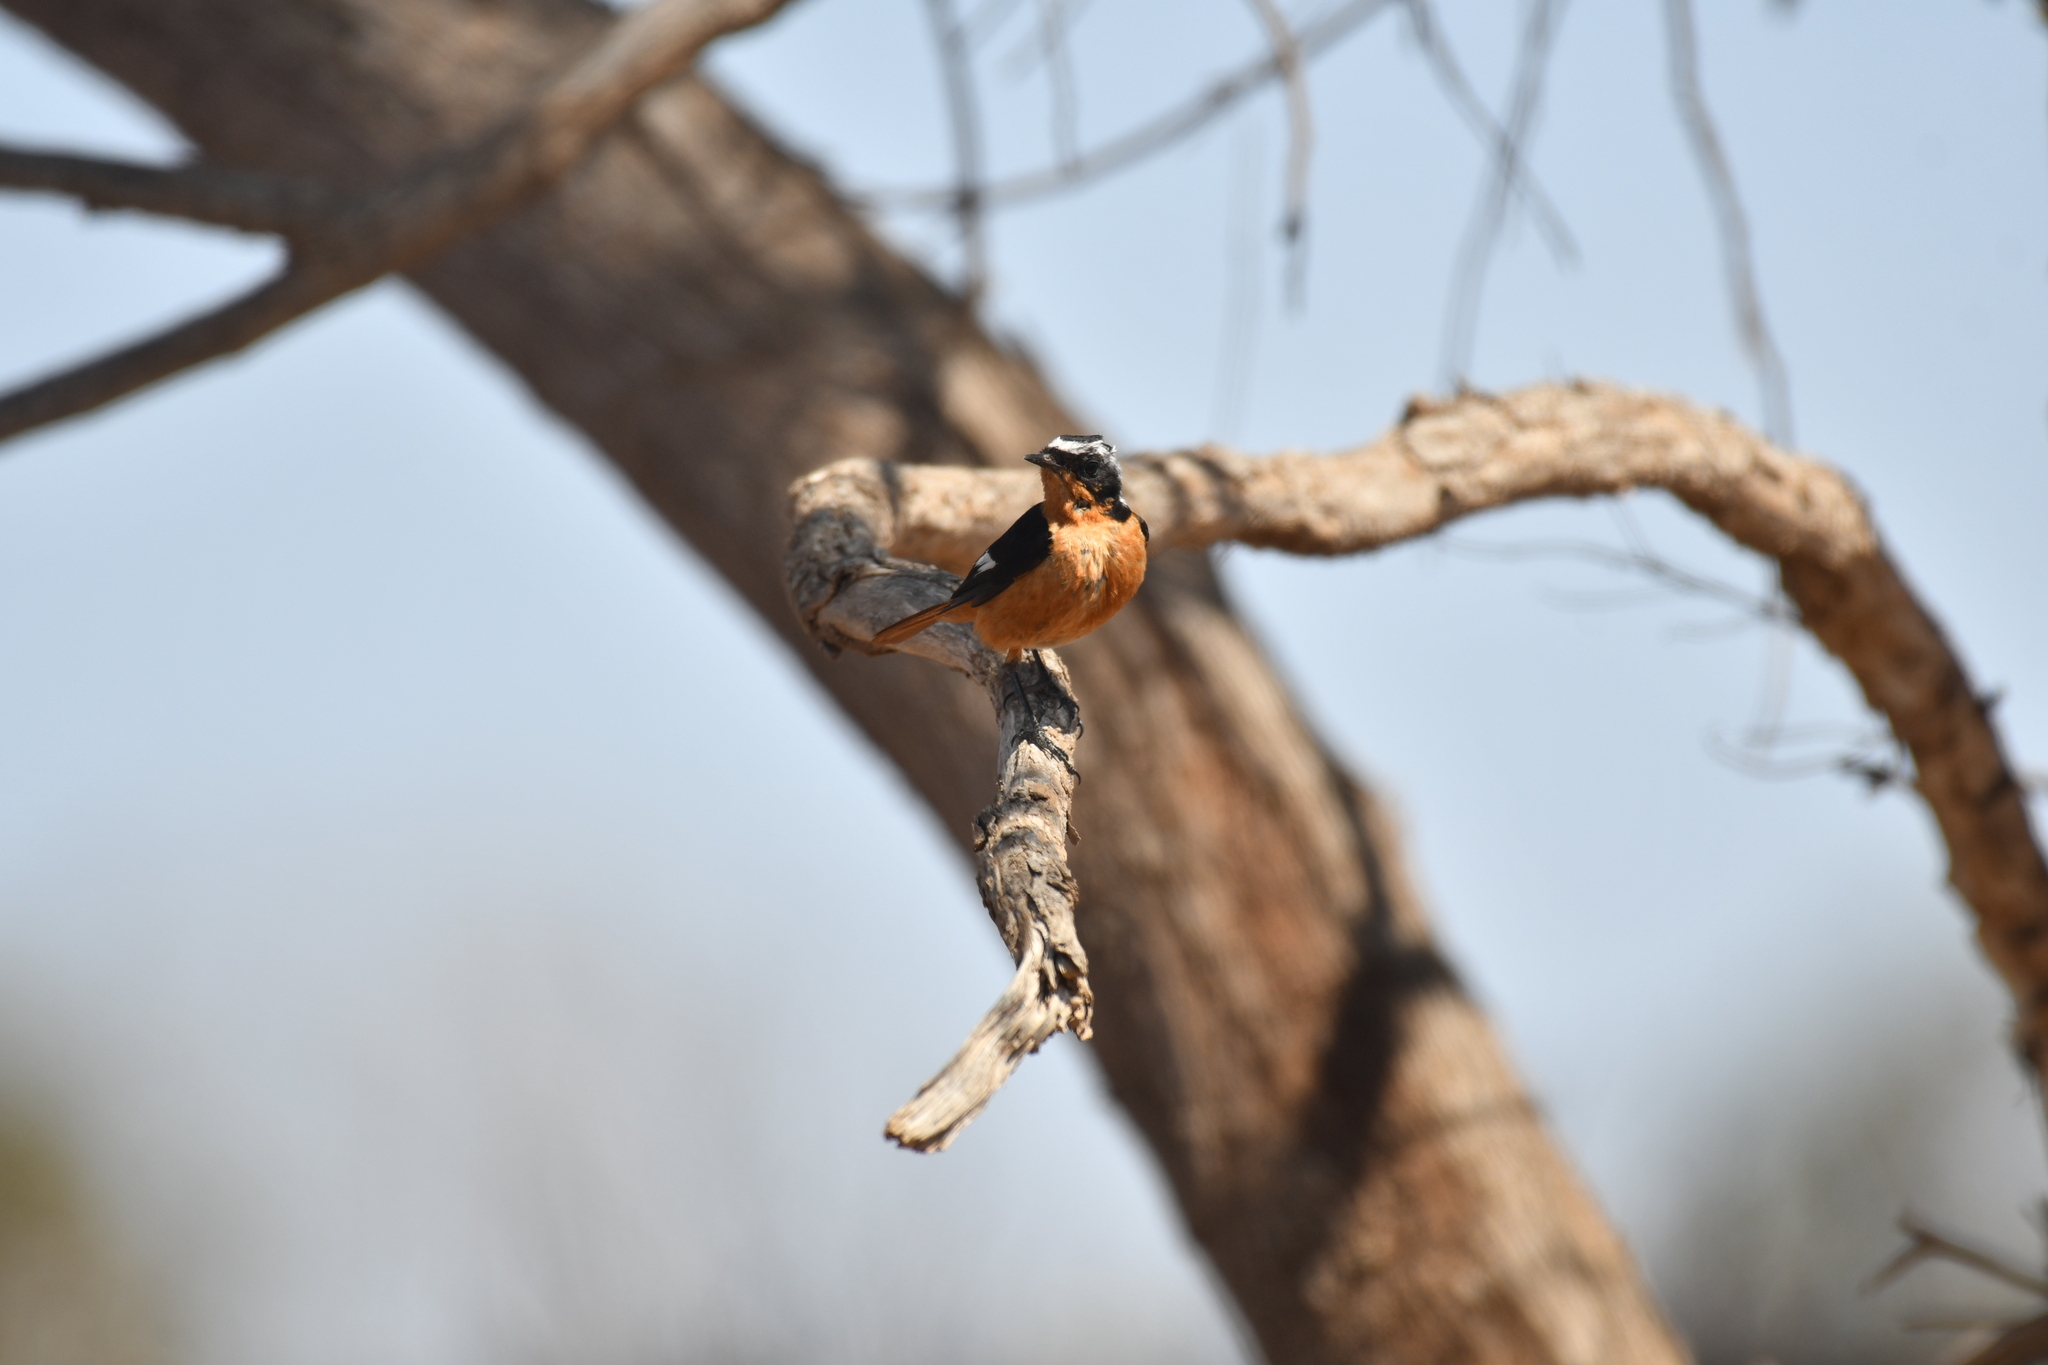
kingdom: Animalia
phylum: Chordata
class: Aves
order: Passeriformes
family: Muscicapidae
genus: Phoenicurus
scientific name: Phoenicurus moussieri
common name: Moussier's redstart
